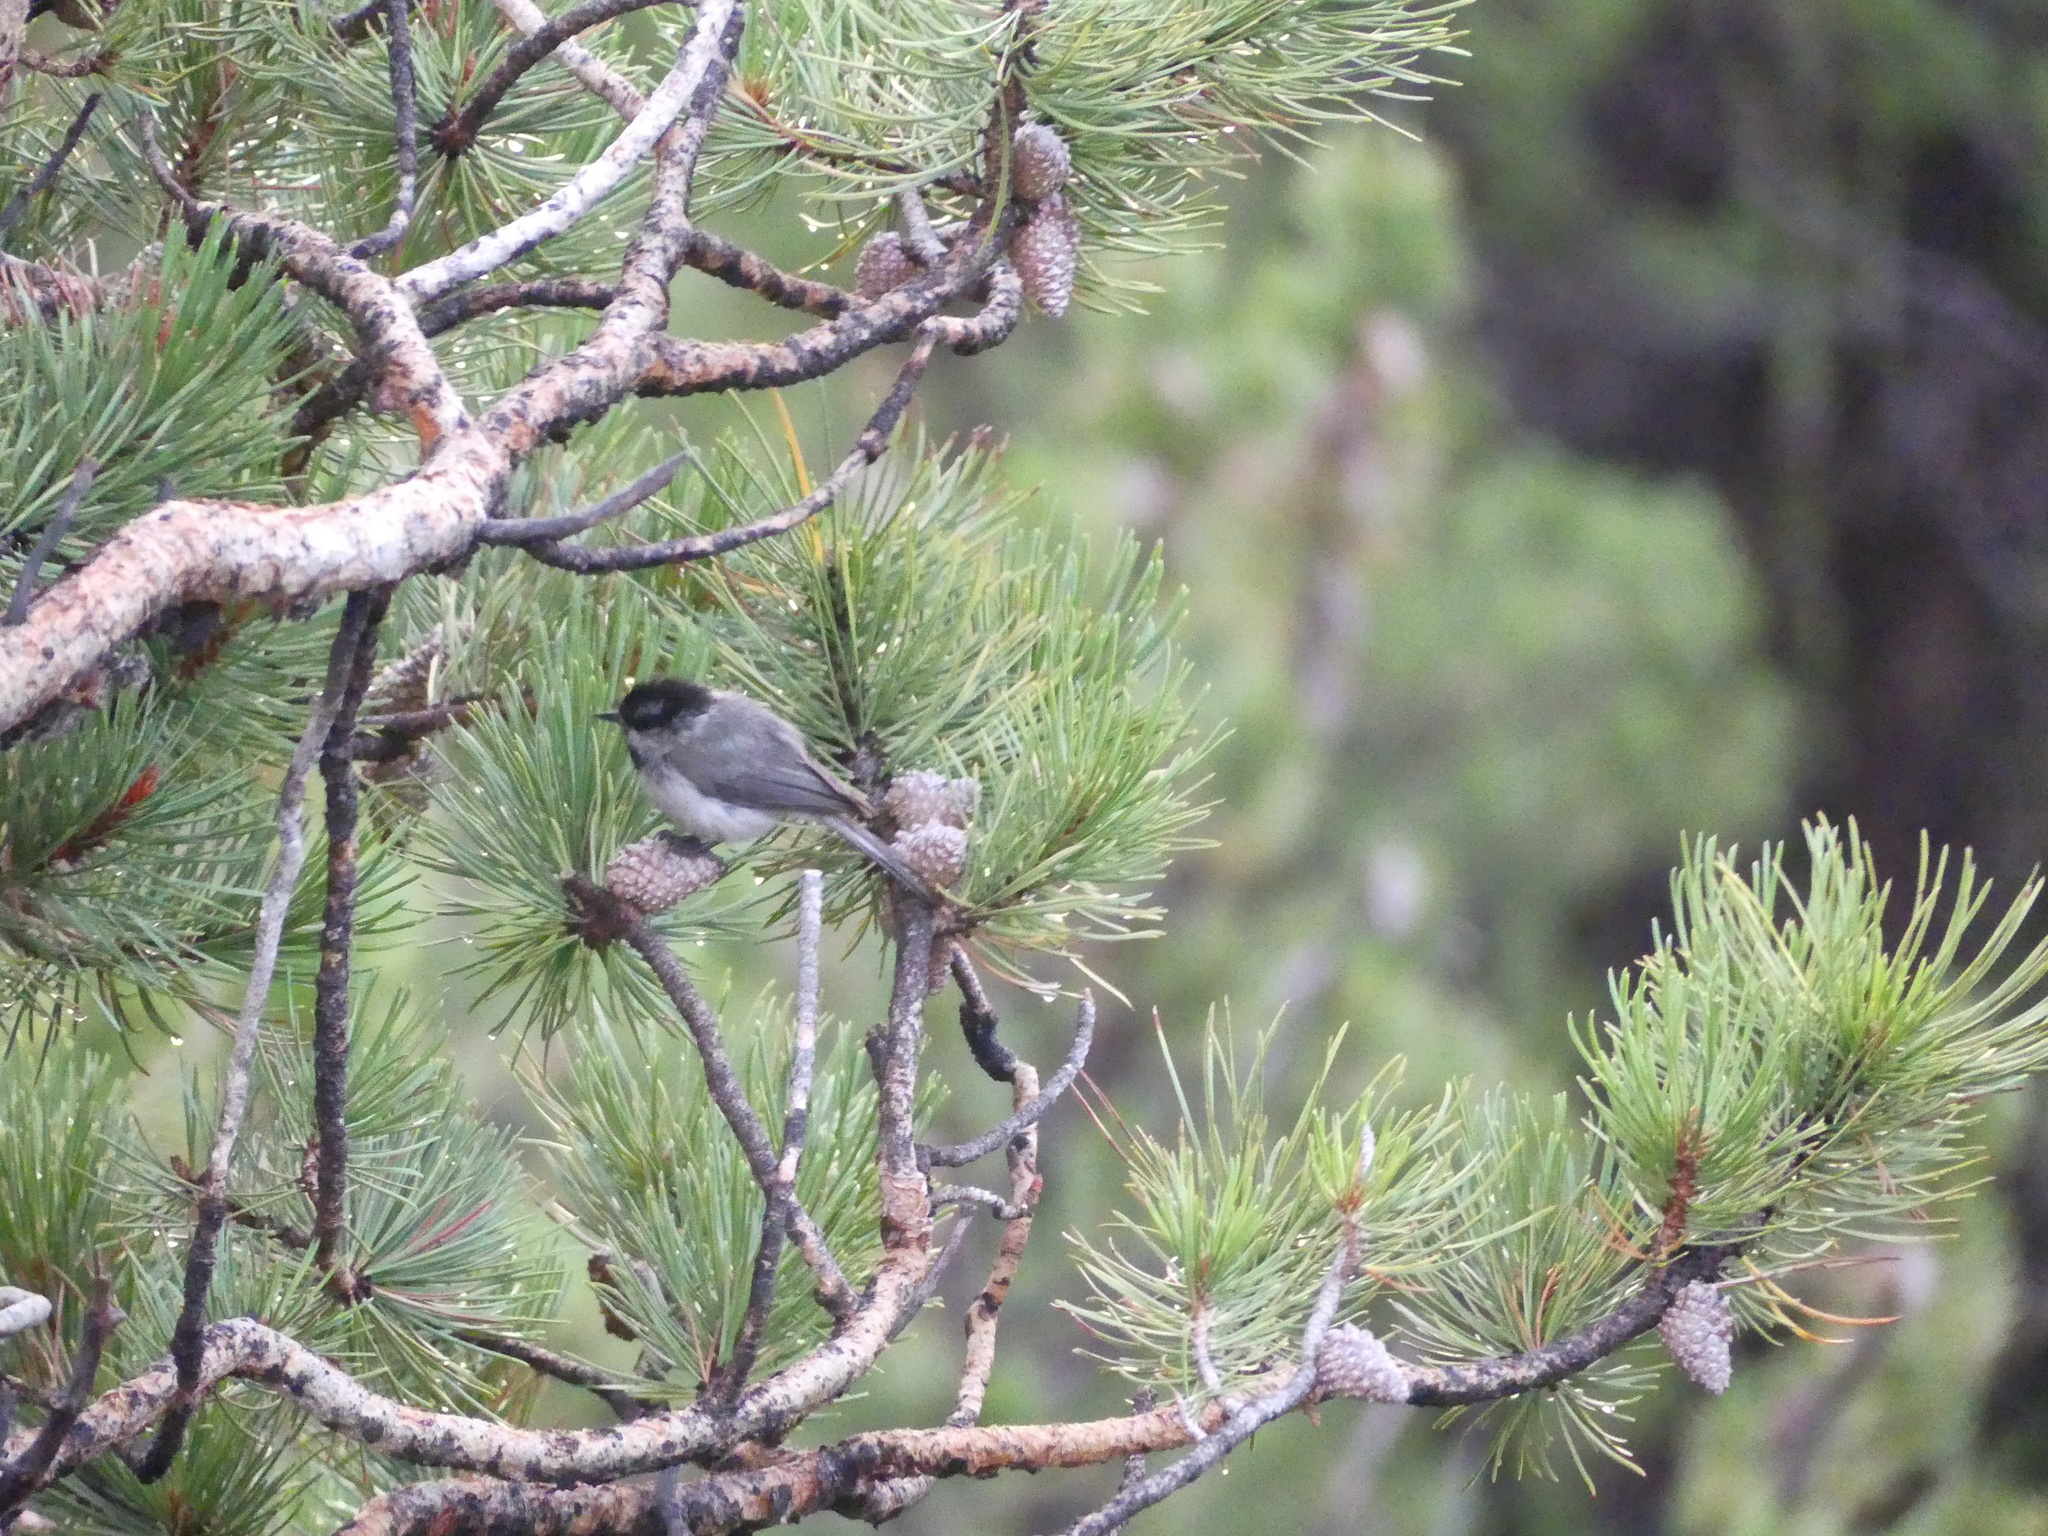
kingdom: Animalia
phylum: Chordata
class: Aves
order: Passeriformes
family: Paridae
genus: Poecile
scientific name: Poecile gambeli
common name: Mountain chickadee
